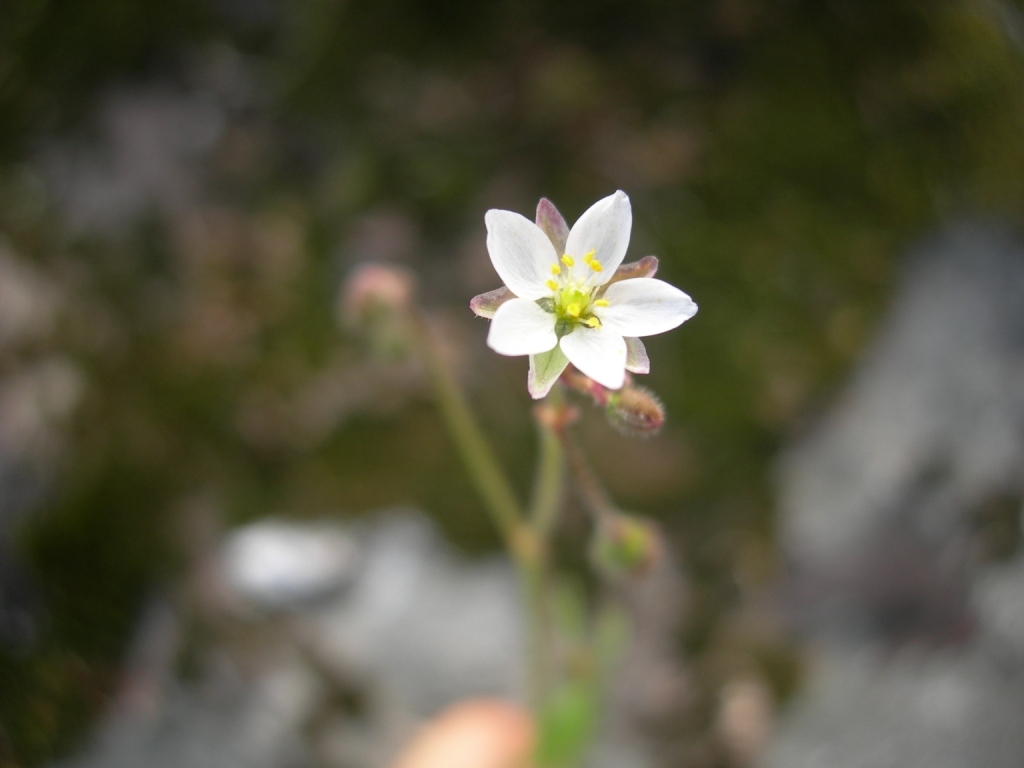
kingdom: Plantae
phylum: Tracheophyta
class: Magnoliopsida
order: Caryophyllales
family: Caryophyllaceae
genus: Spergula
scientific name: Spergula arvensis
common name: Corn spurrey
